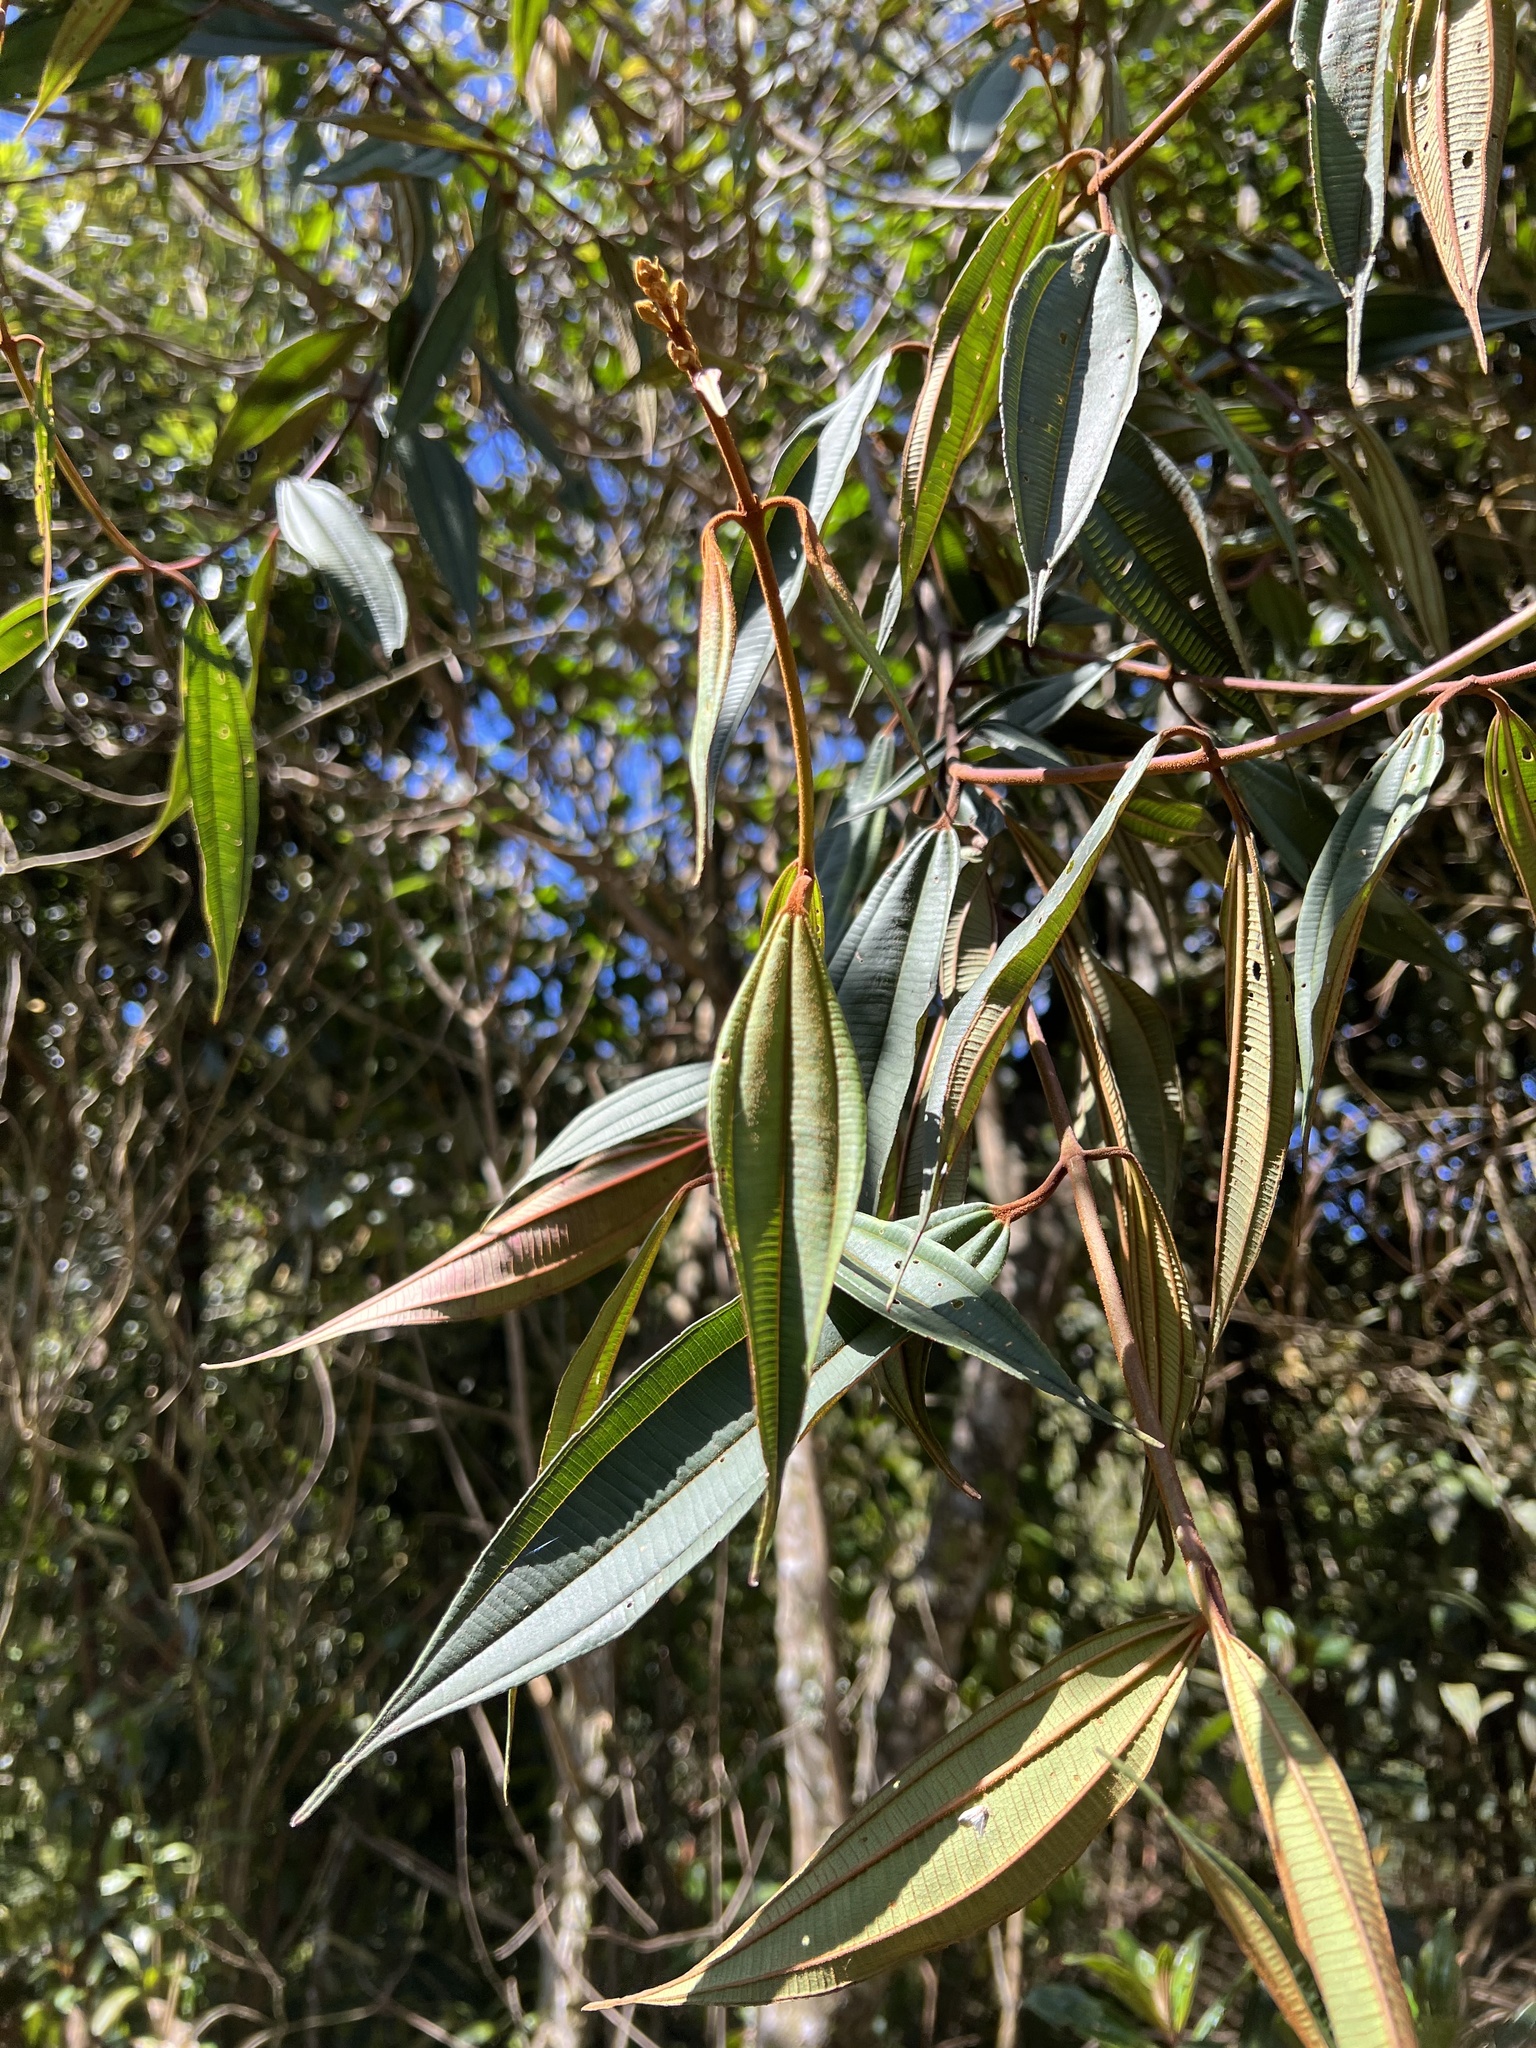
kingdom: Plantae
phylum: Tracheophyta
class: Magnoliopsida
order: Myrtales
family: Melastomataceae
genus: Miconia
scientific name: Miconia miocarpa
